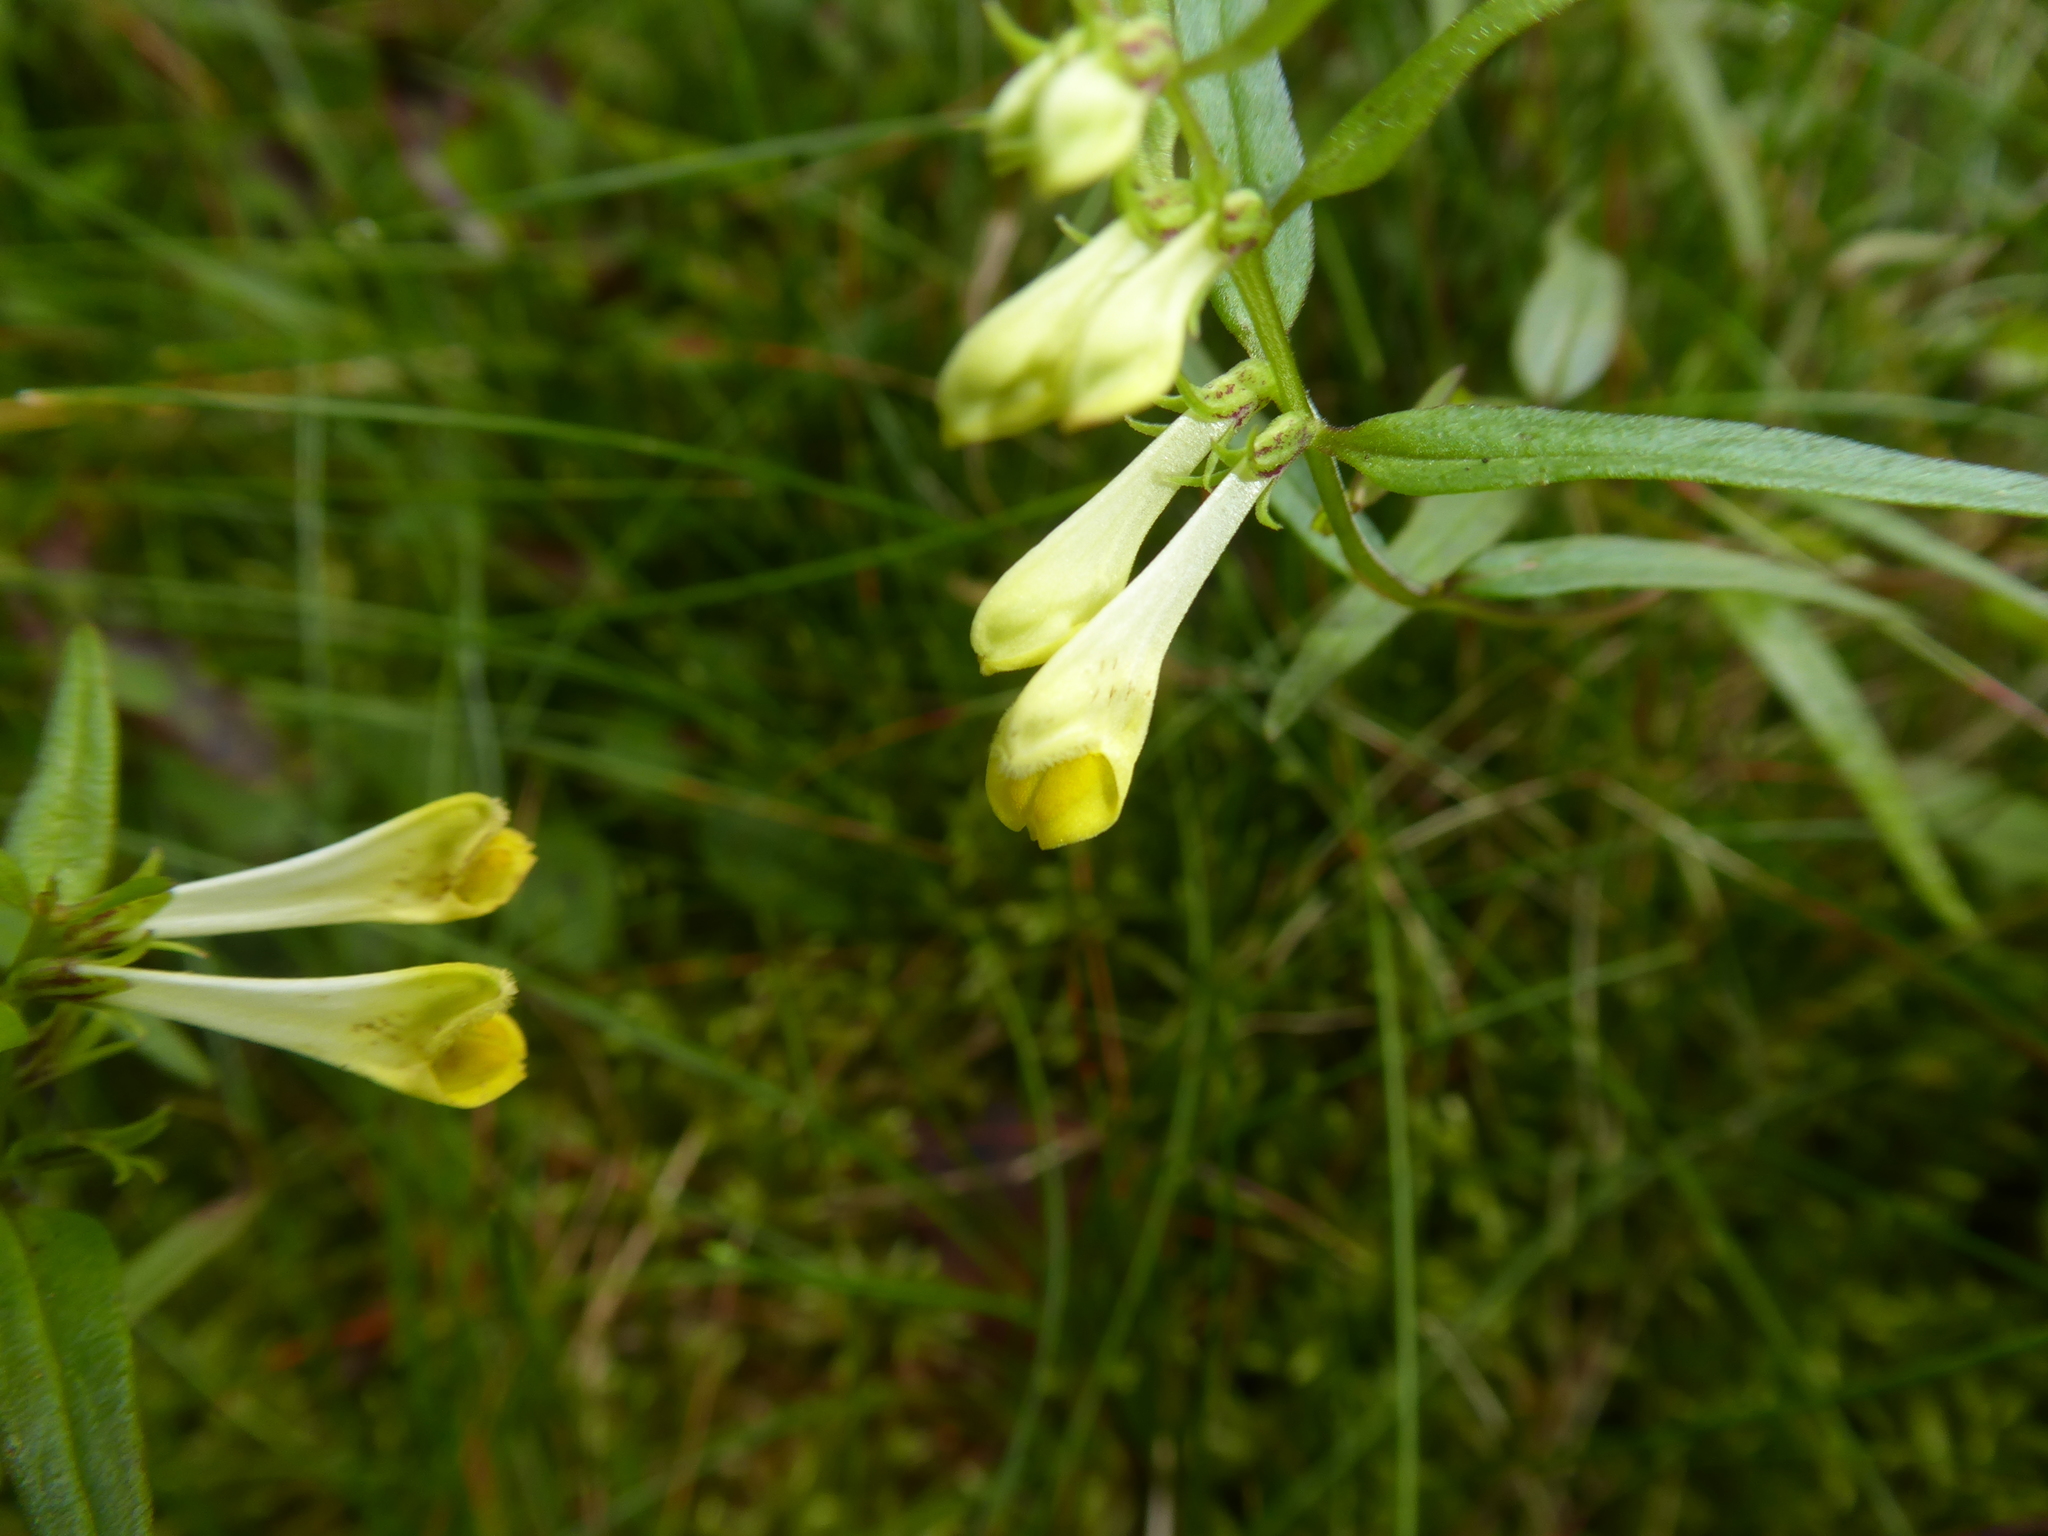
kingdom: Plantae
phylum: Tracheophyta
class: Magnoliopsida
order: Lamiales
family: Orobanchaceae
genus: Melampyrum
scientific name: Melampyrum pratense
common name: Common cow-wheat
